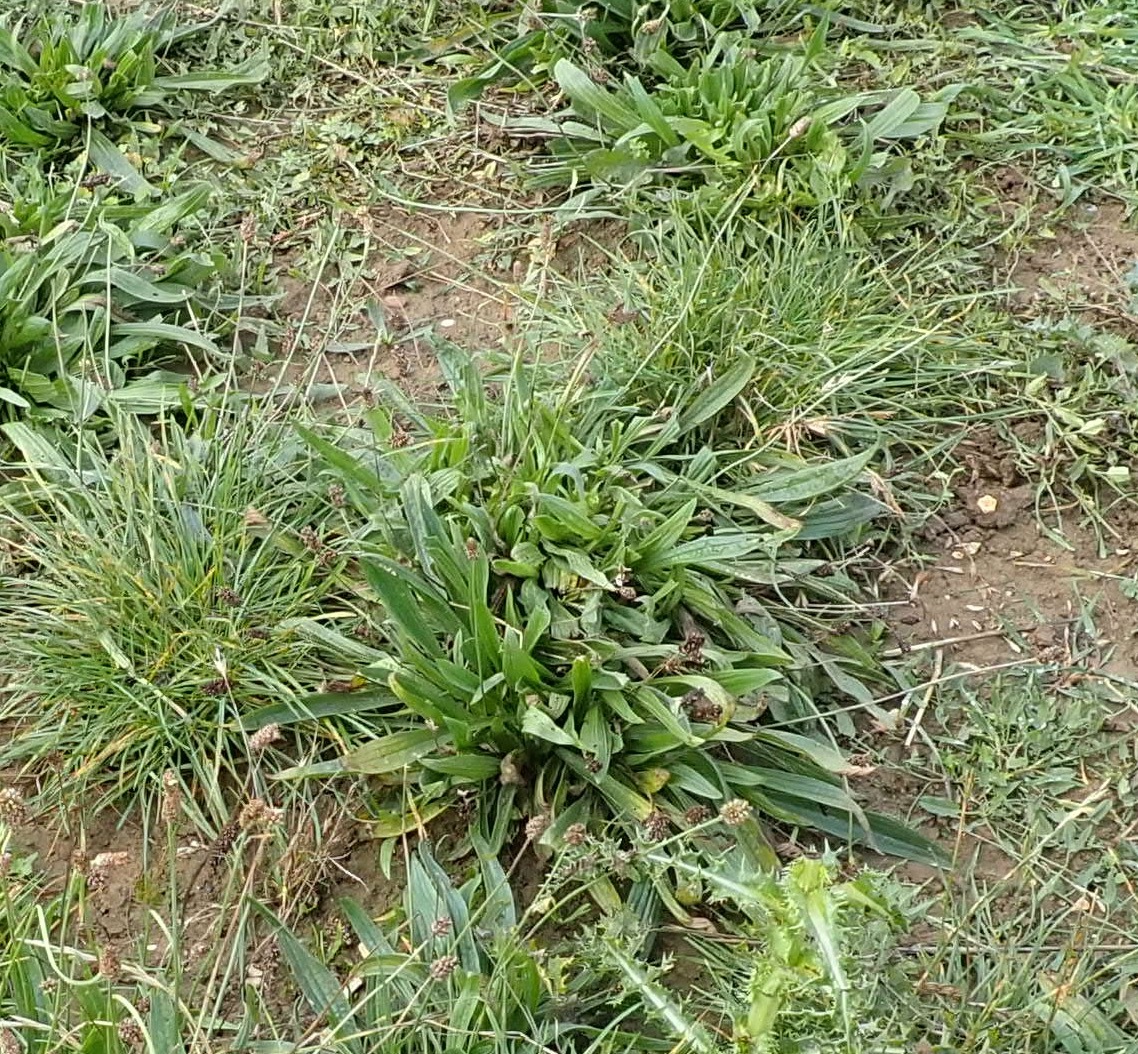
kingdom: Plantae
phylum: Tracheophyta
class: Magnoliopsida
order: Lamiales
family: Plantaginaceae
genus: Plantago
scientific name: Plantago lanceolata
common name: Ribwort plantain
